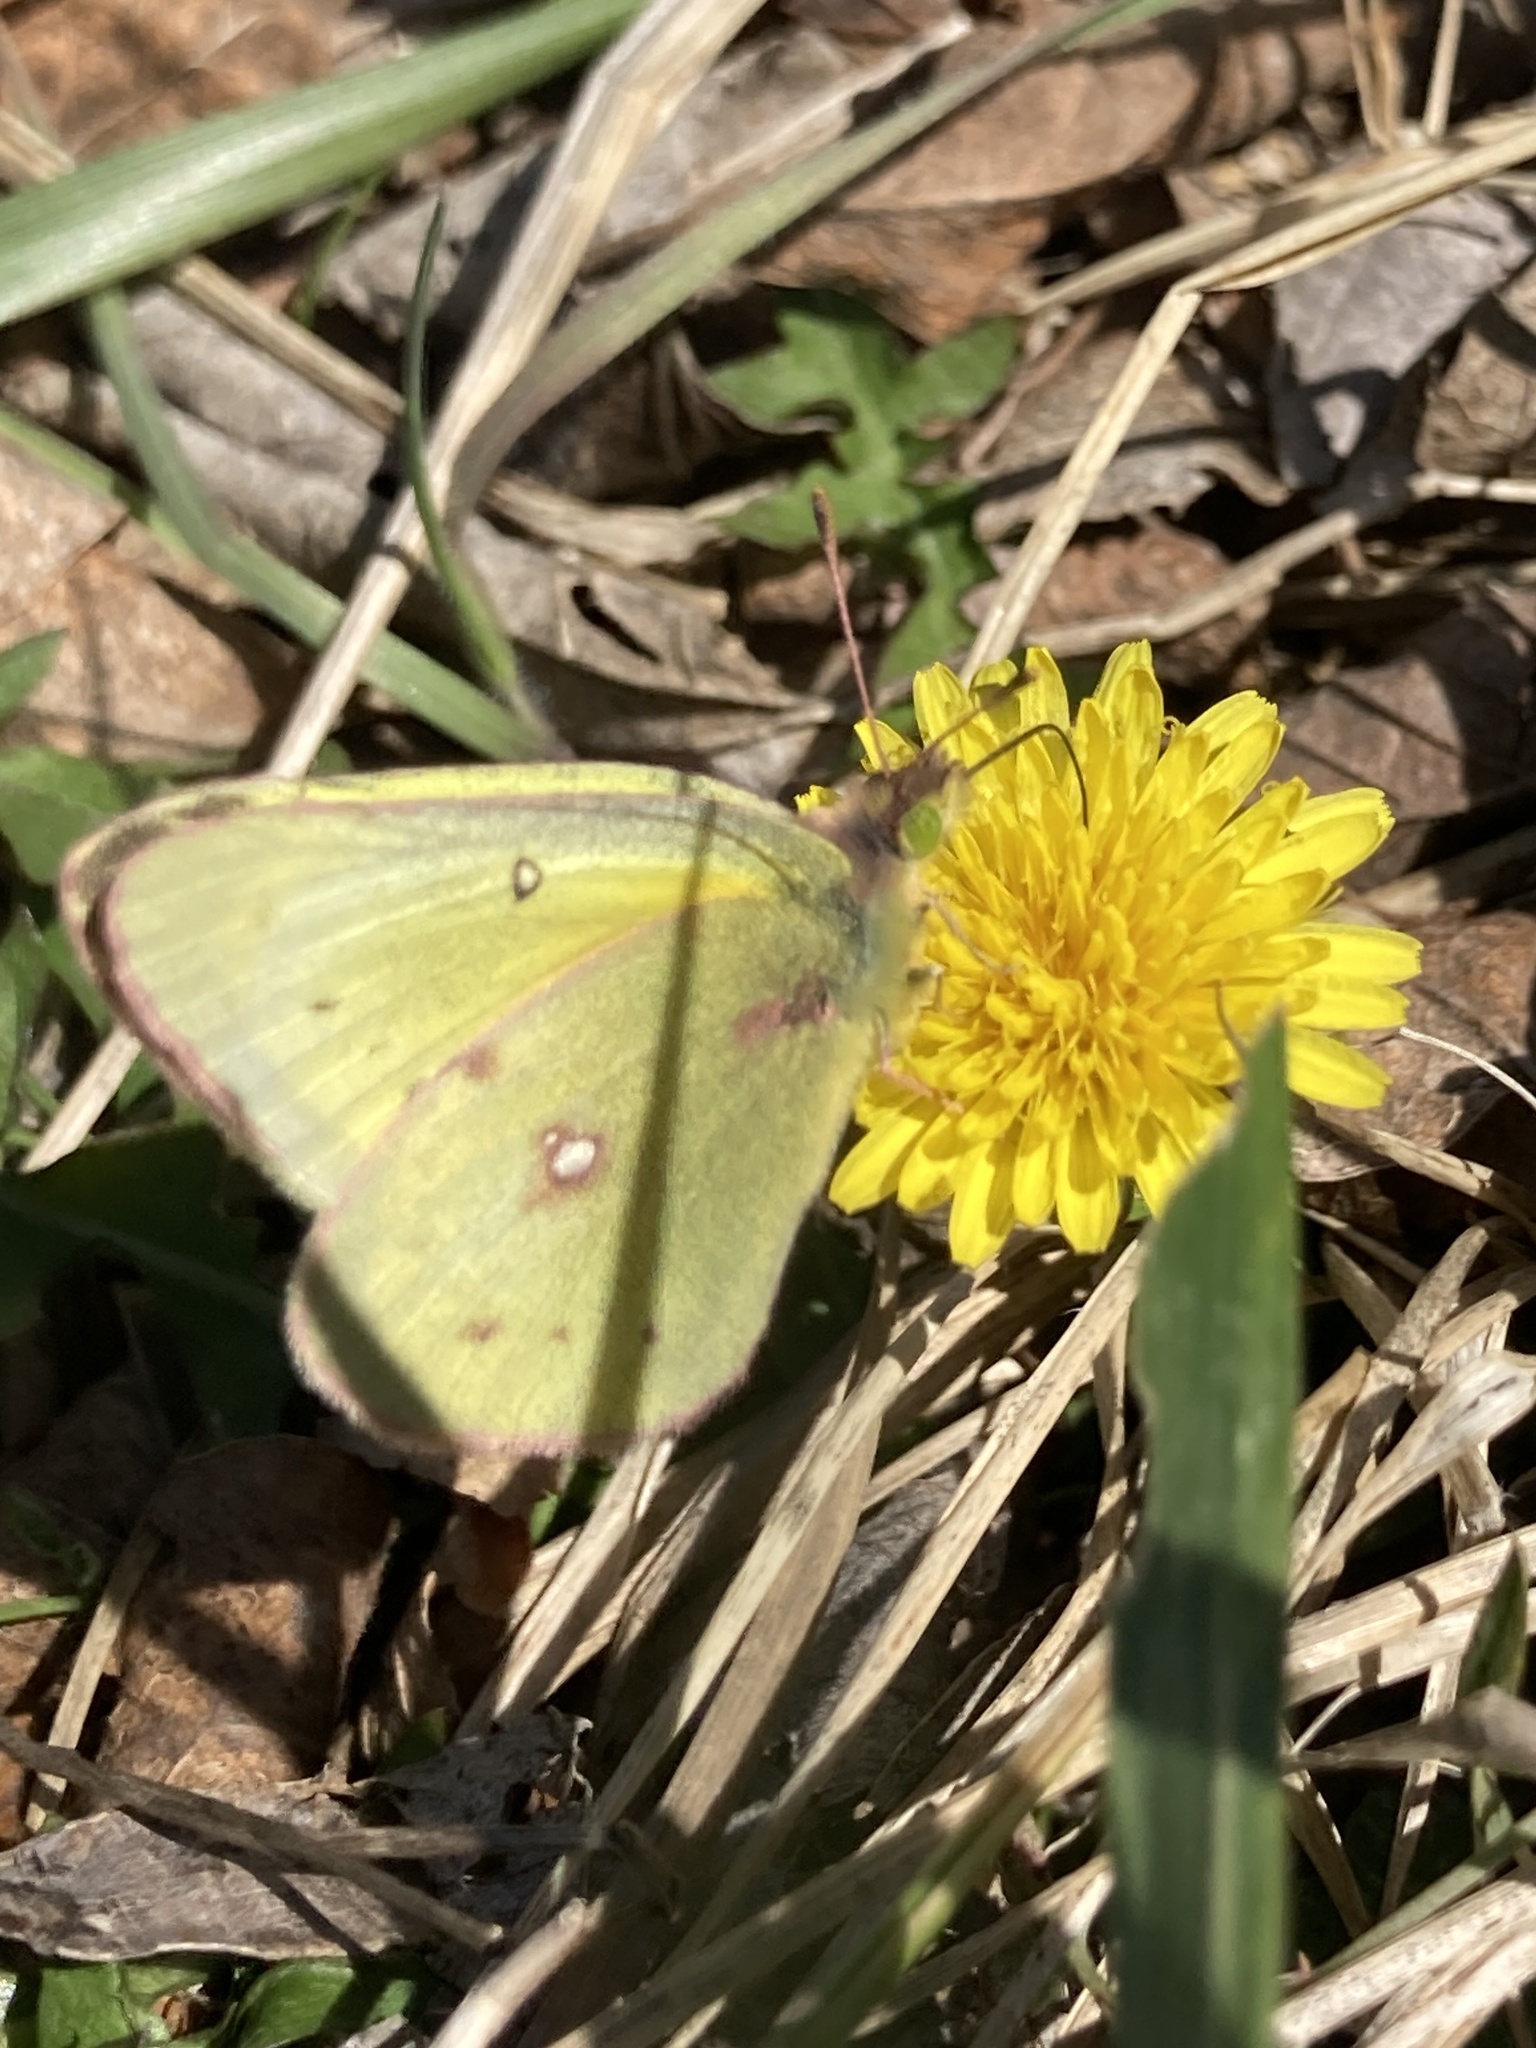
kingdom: Animalia
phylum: Arthropoda
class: Insecta
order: Lepidoptera
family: Pieridae
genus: Colias
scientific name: Colias eurytheme
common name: Alfalfa butterfly
